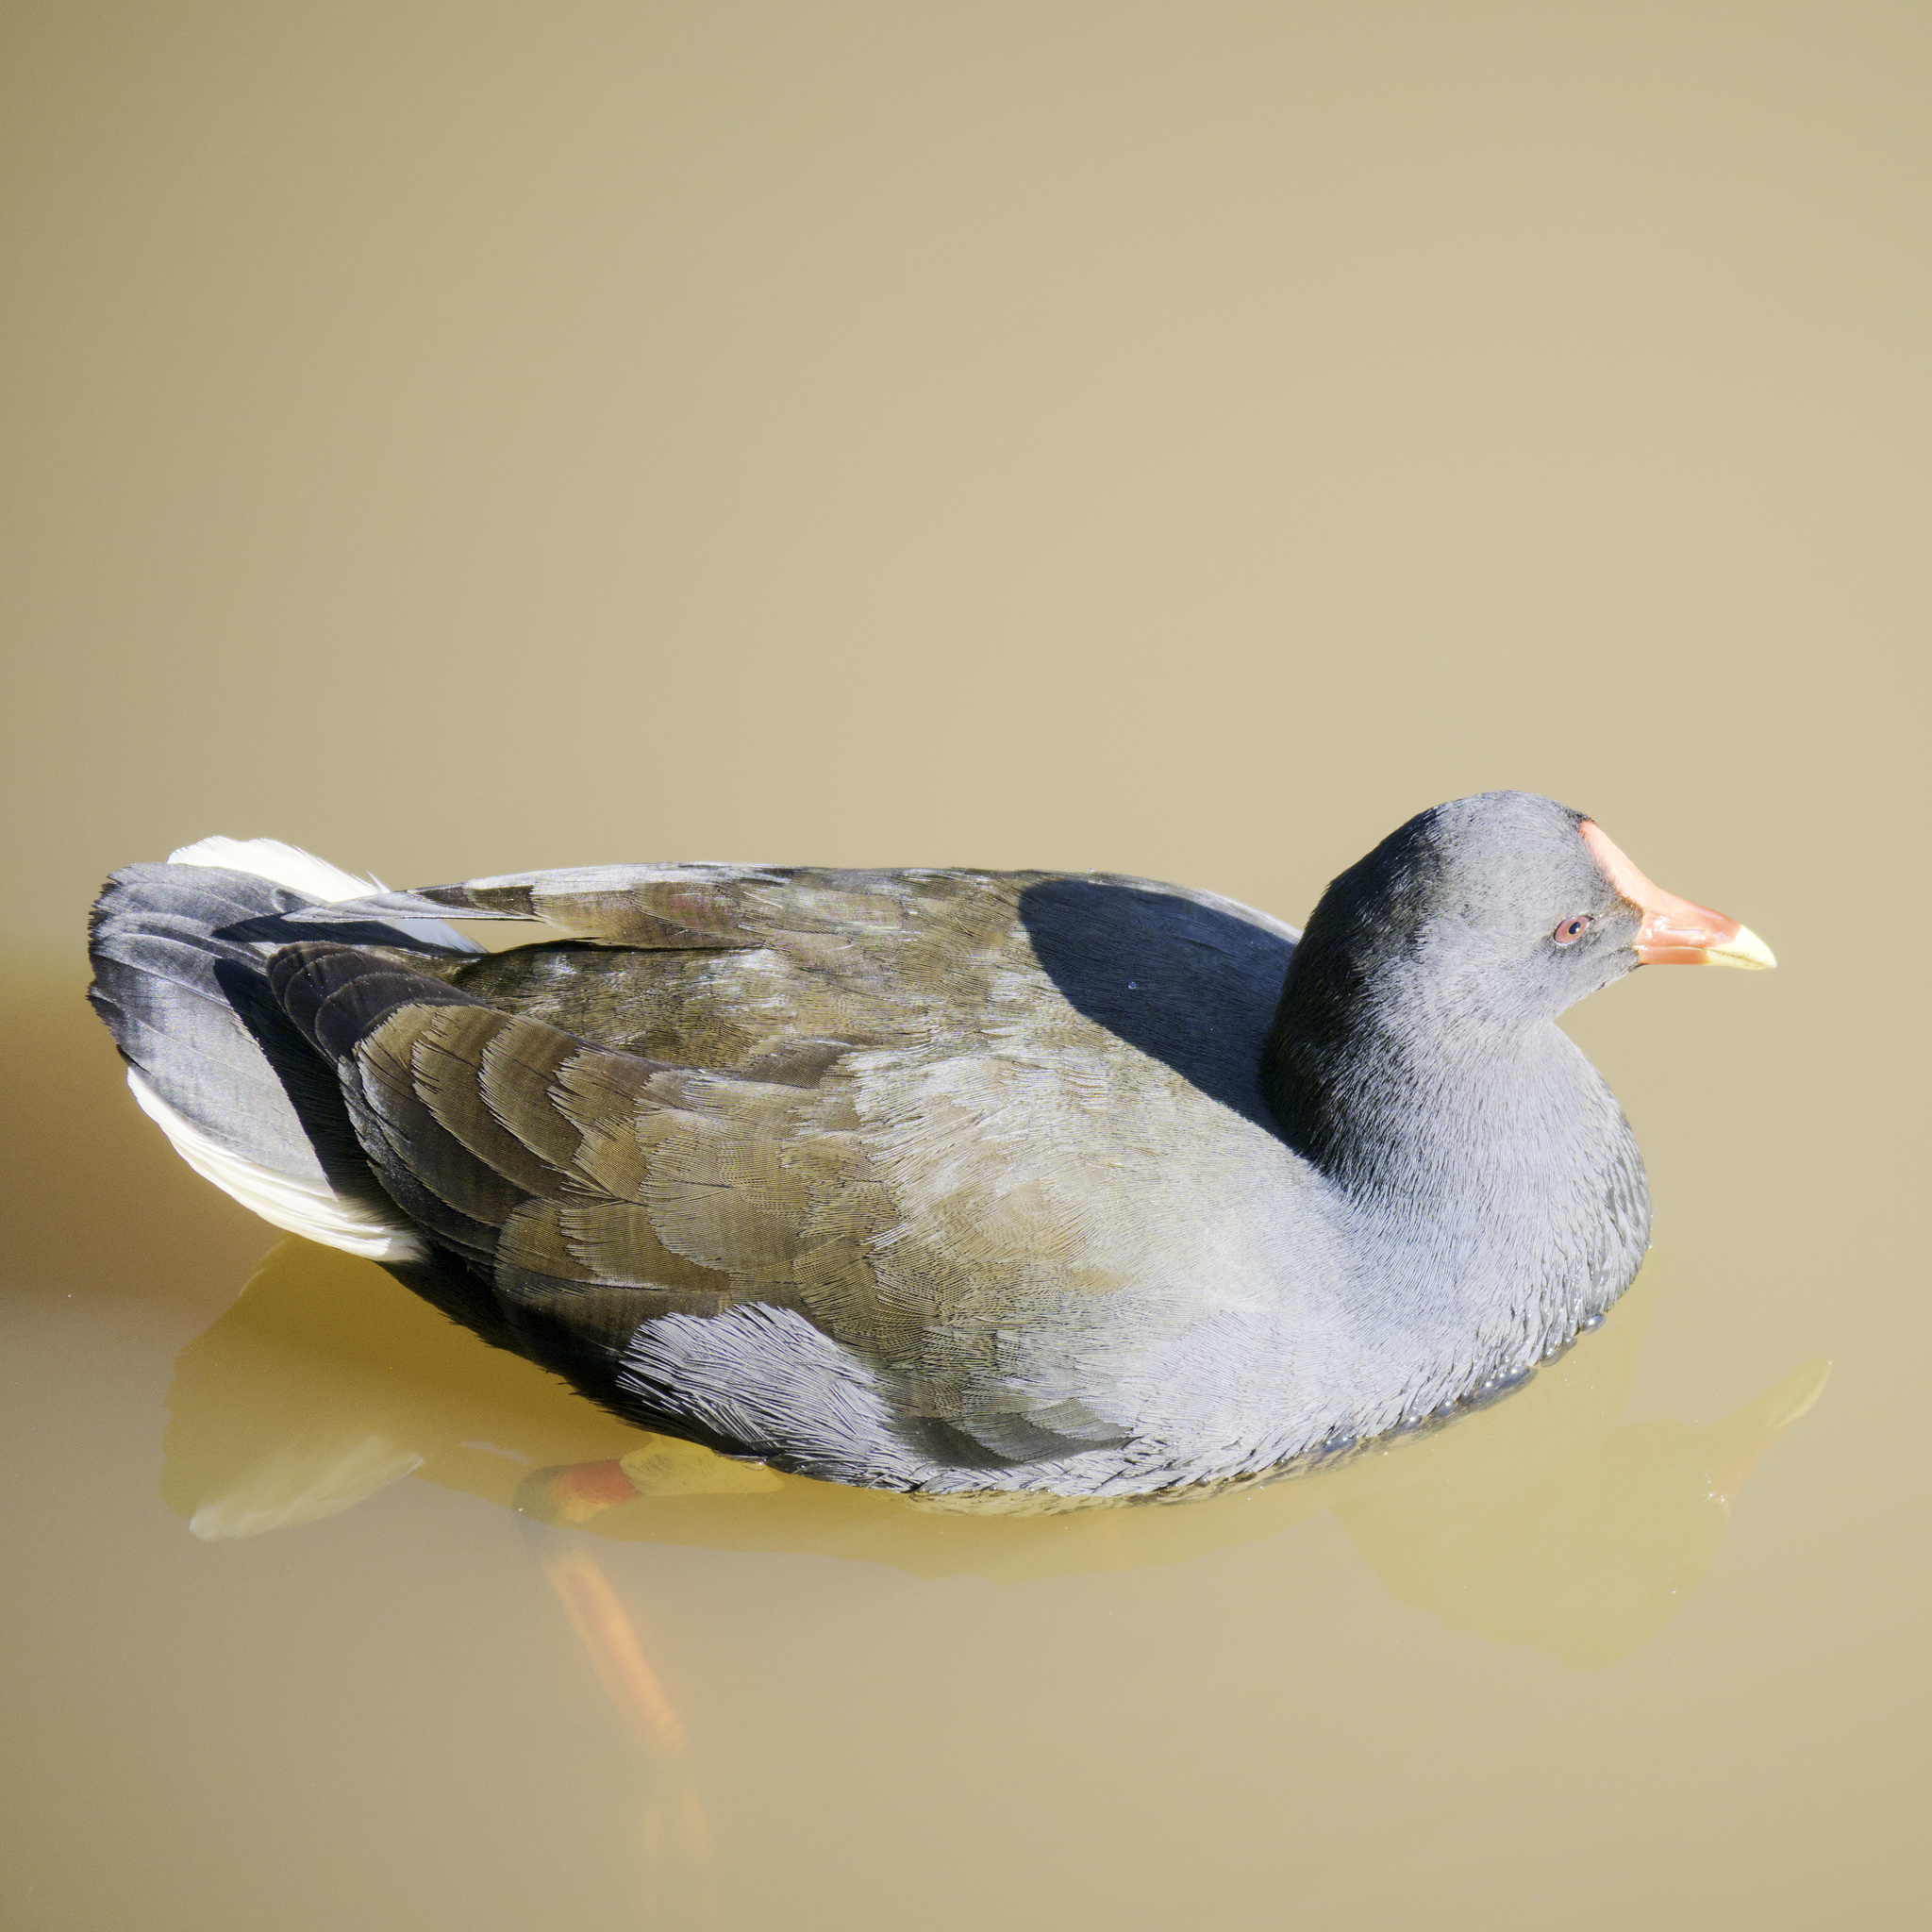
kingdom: Animalia
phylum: Chordata
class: Aves
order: Gruiformes
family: Rallidae
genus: Gallinula
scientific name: Gallinula tenebrosa
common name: Dusky moorhen
